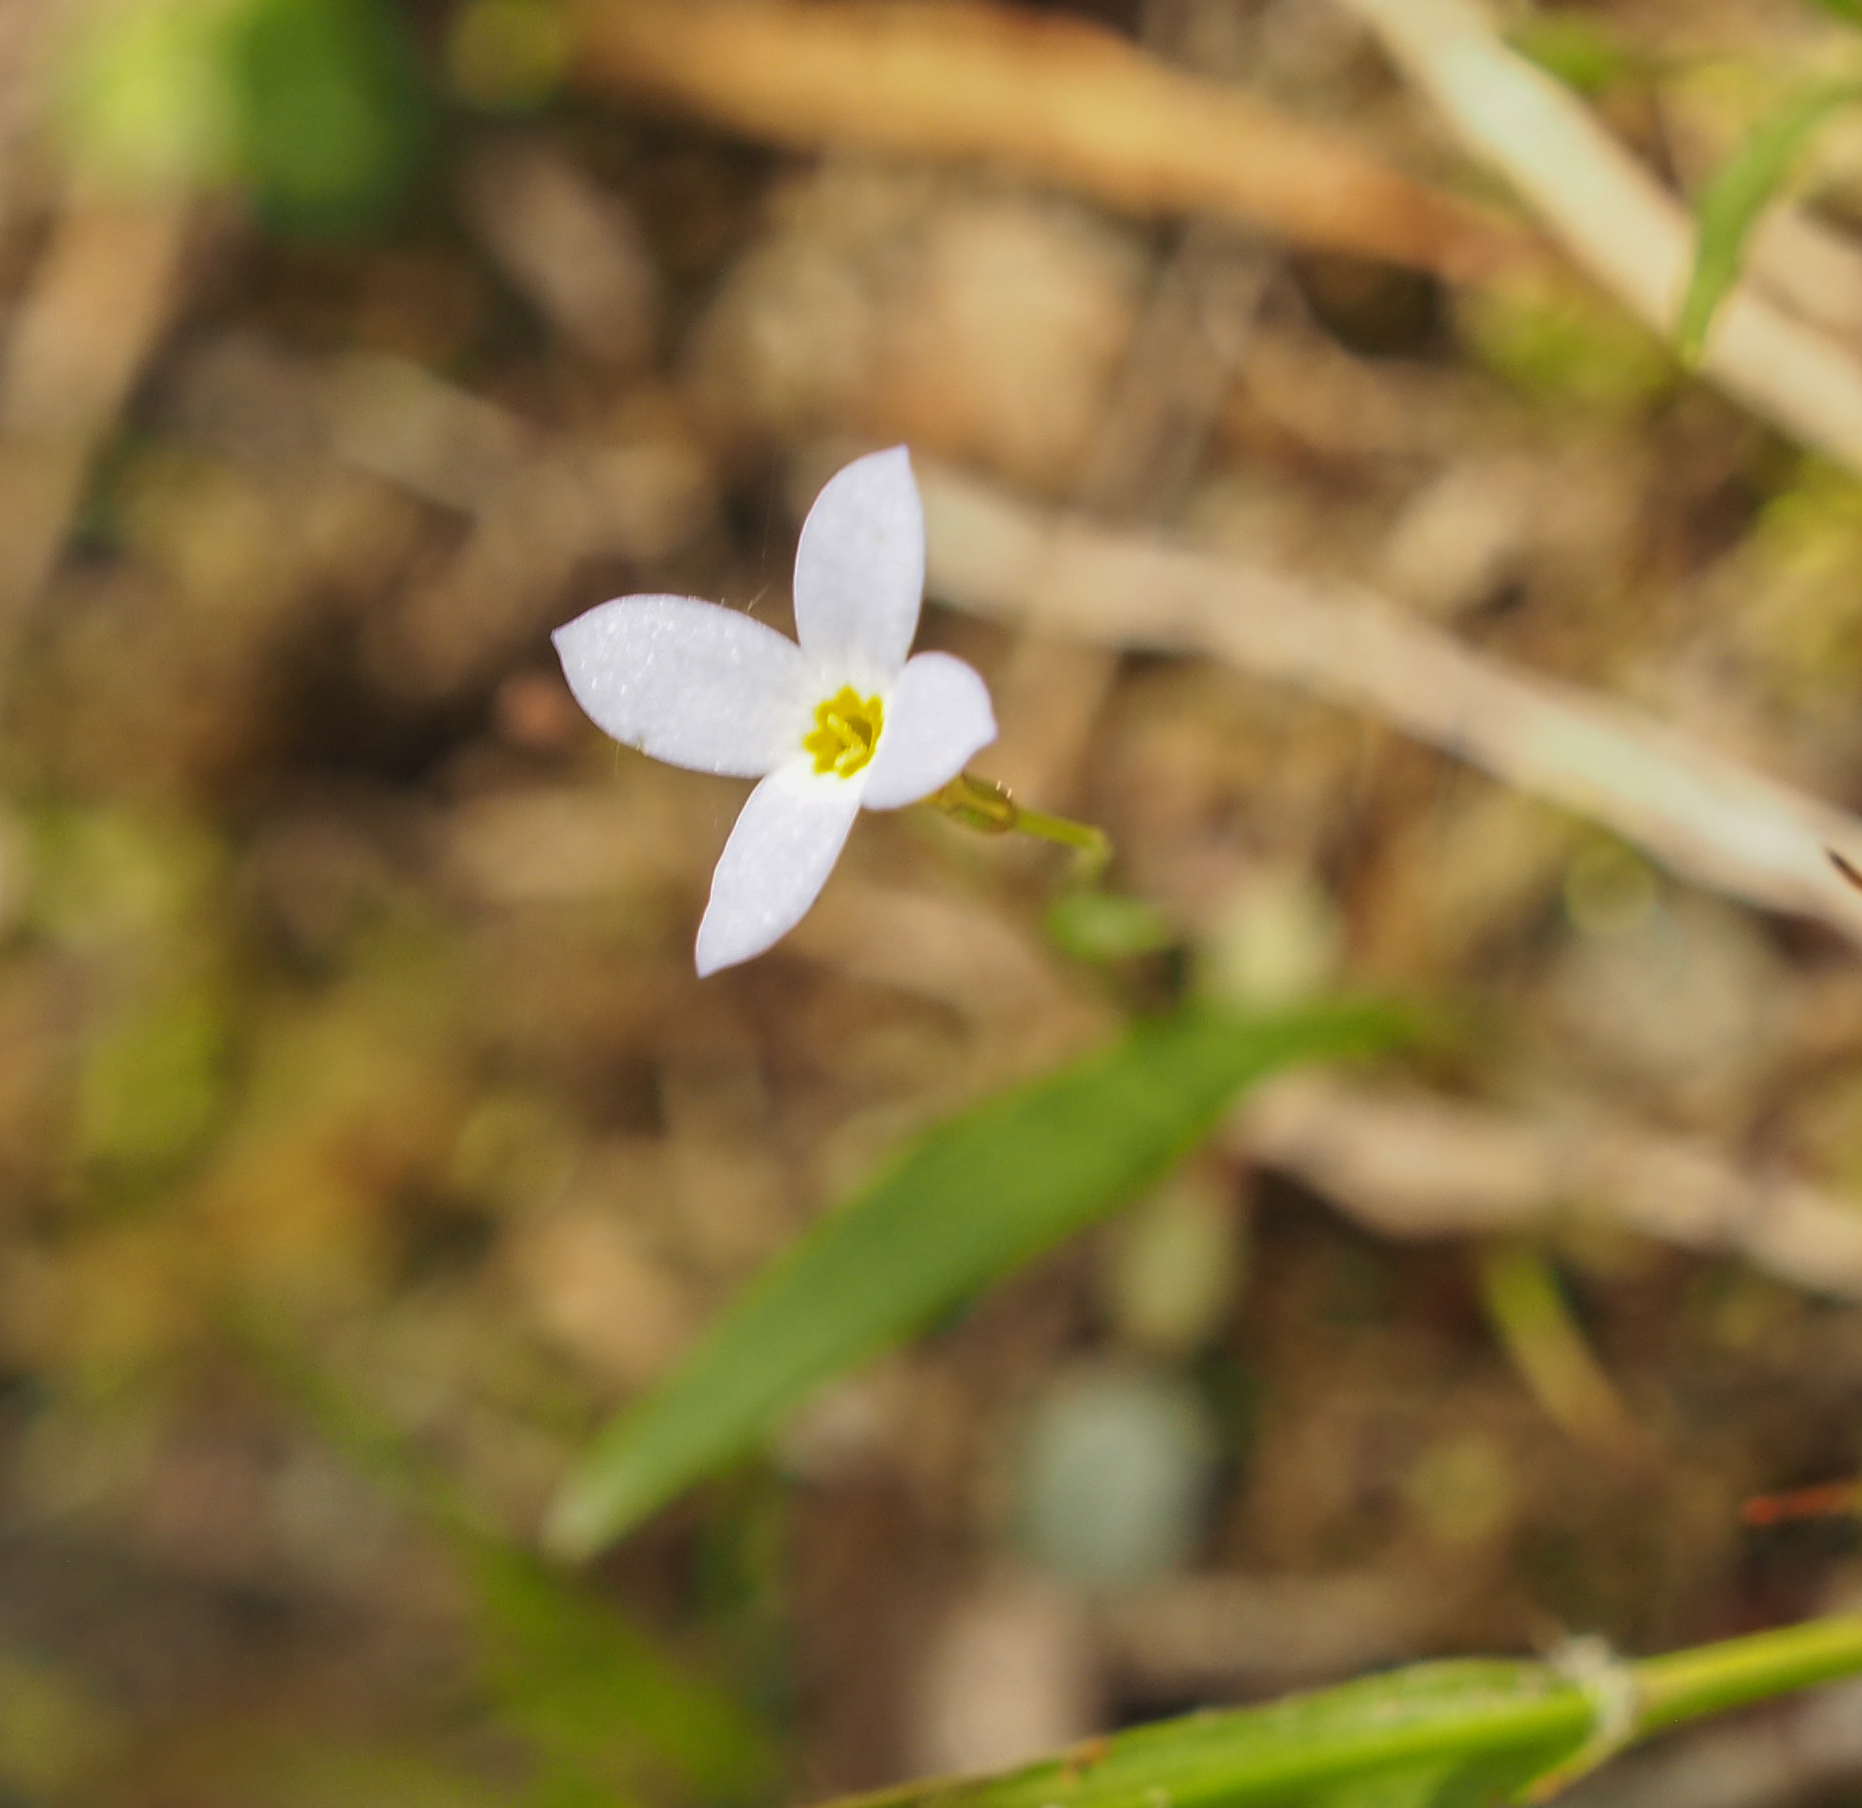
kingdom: Plantae
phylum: Tracheophyta
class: Magnoliopsida
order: Gentianales
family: Rubiaceae
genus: Houstonia
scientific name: Houstonia caerulea
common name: Bluets
